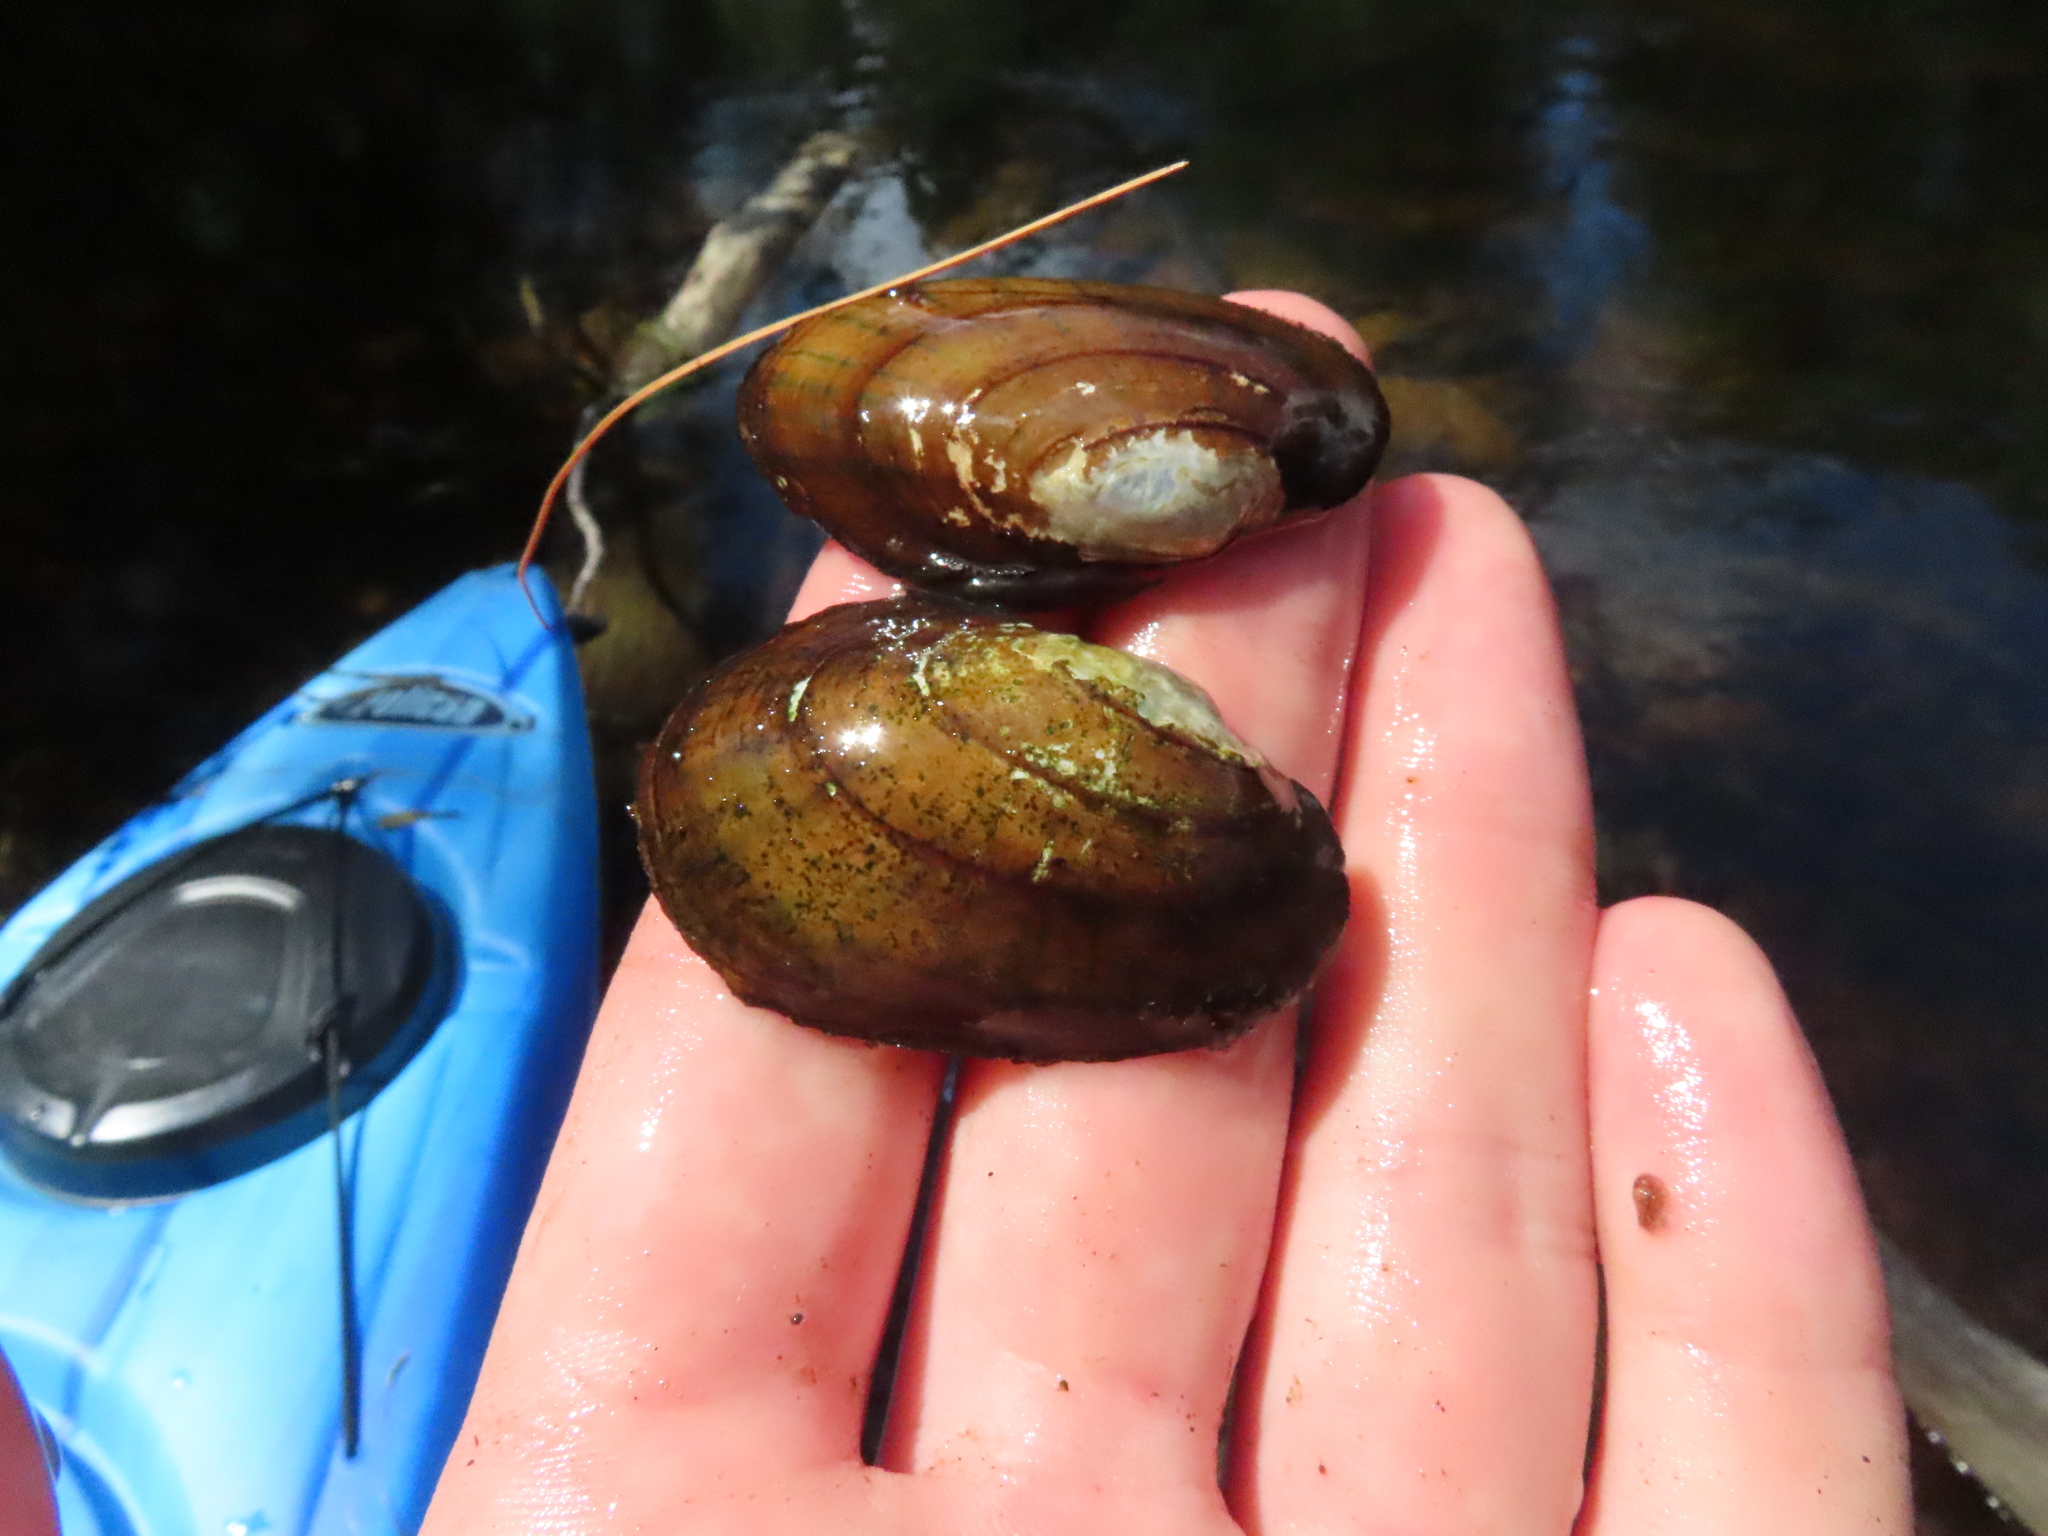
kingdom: Animalia
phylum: Mollusca
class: Bivalvia
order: Unionida
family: Unionidae
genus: Lampsilis
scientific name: Lampsilis siliquoidea
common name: Fatmucket
